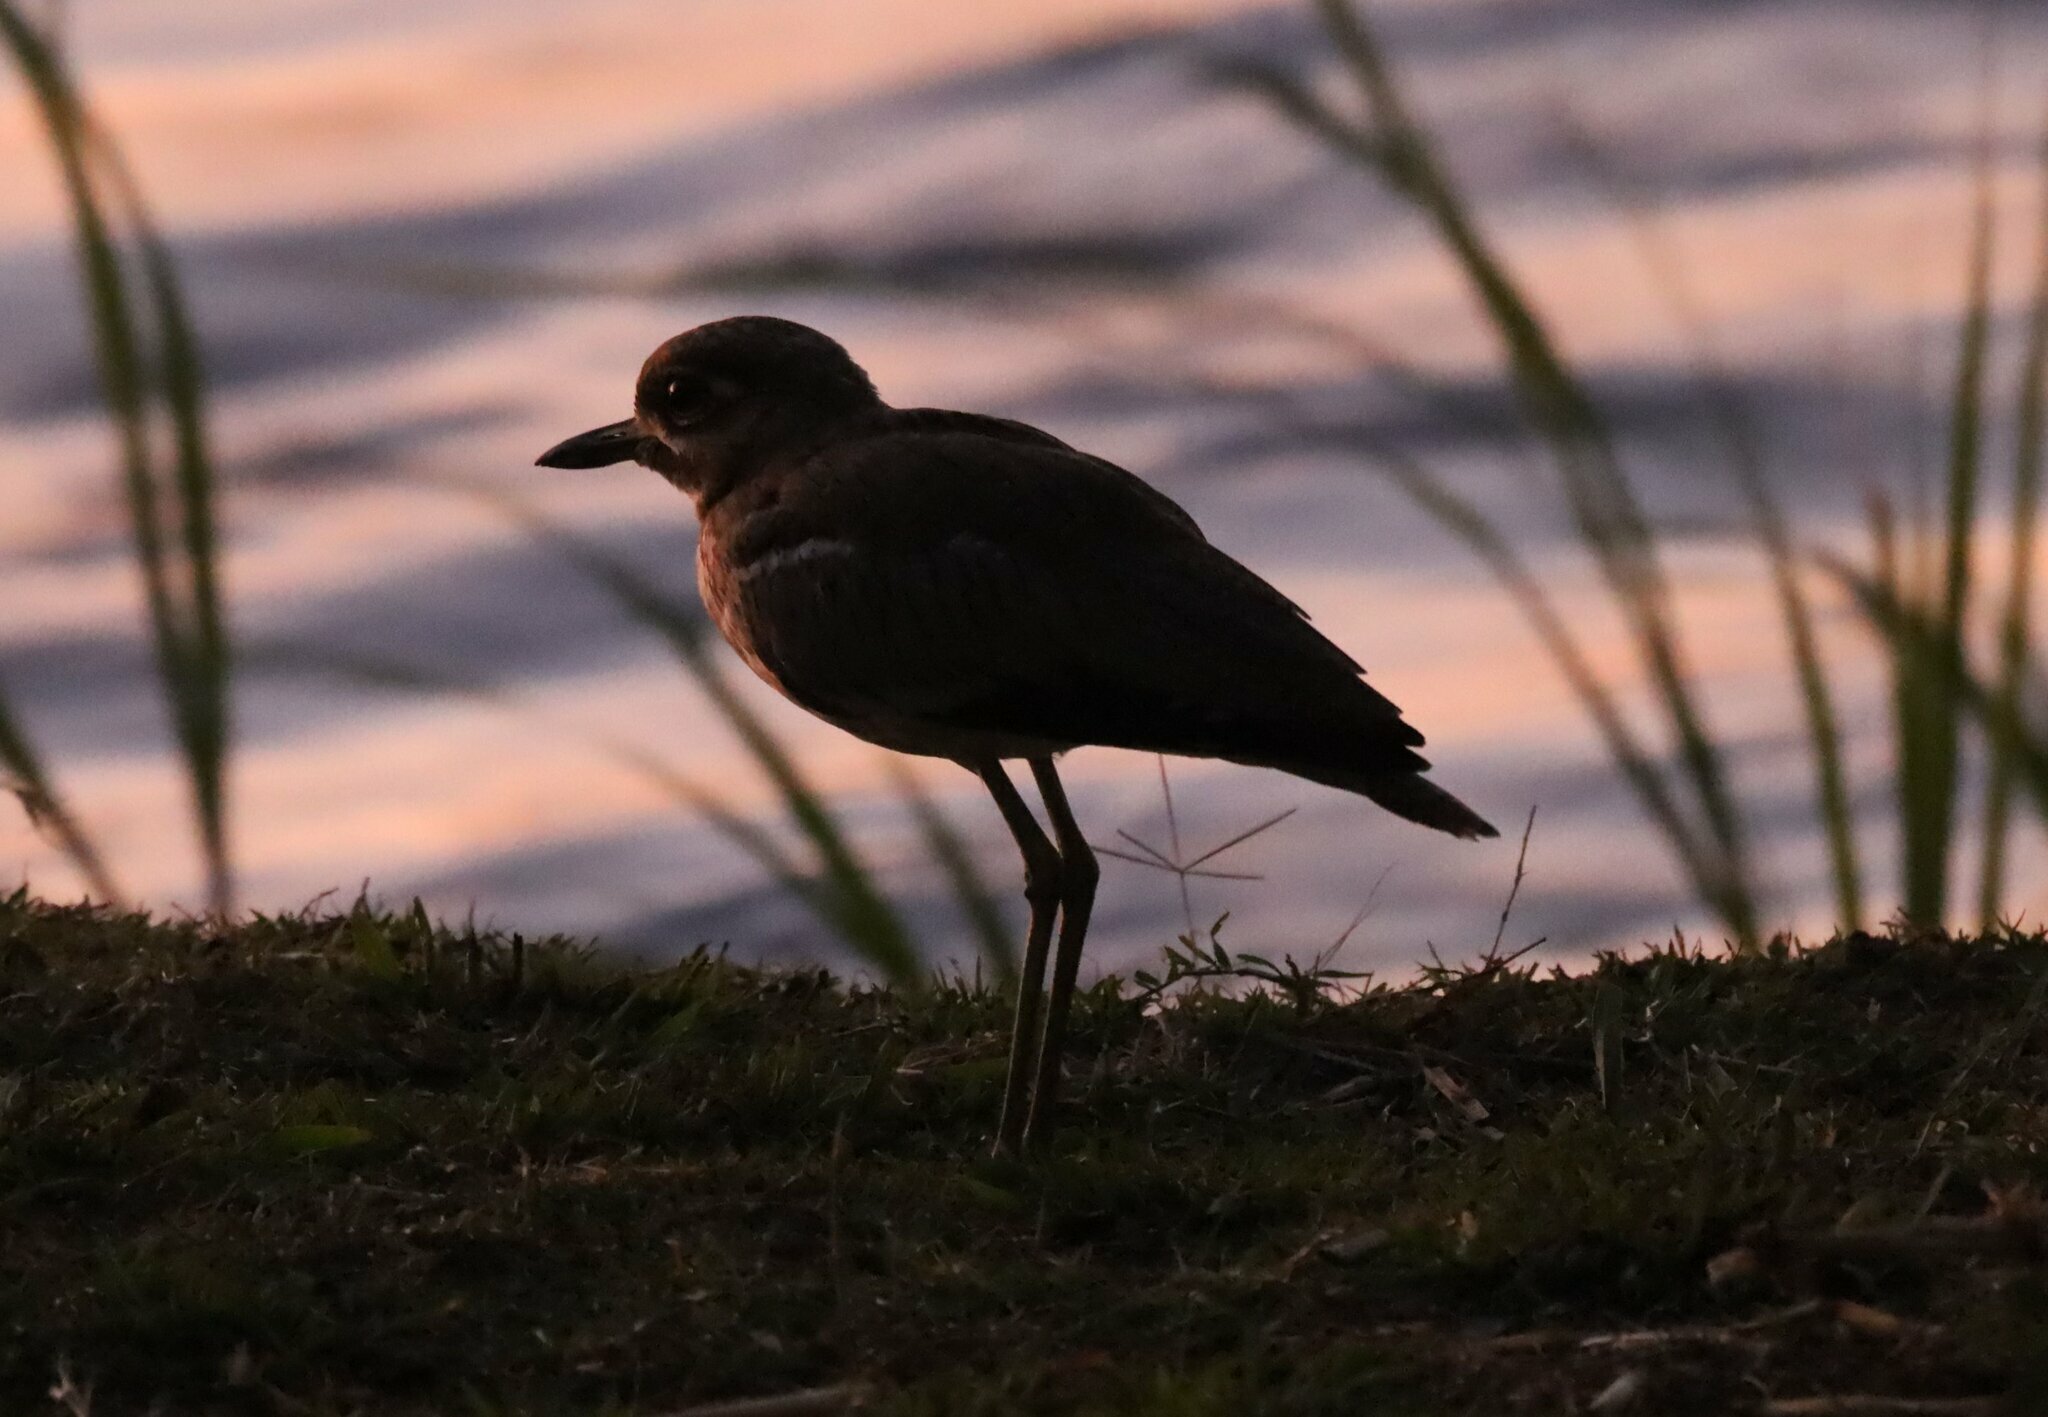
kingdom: Animalia
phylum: Chordata
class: Aves
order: Charadriiformes
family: Burhinidae
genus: Burhinus
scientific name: Burhinus vermiculatus
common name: Water thick-knee
